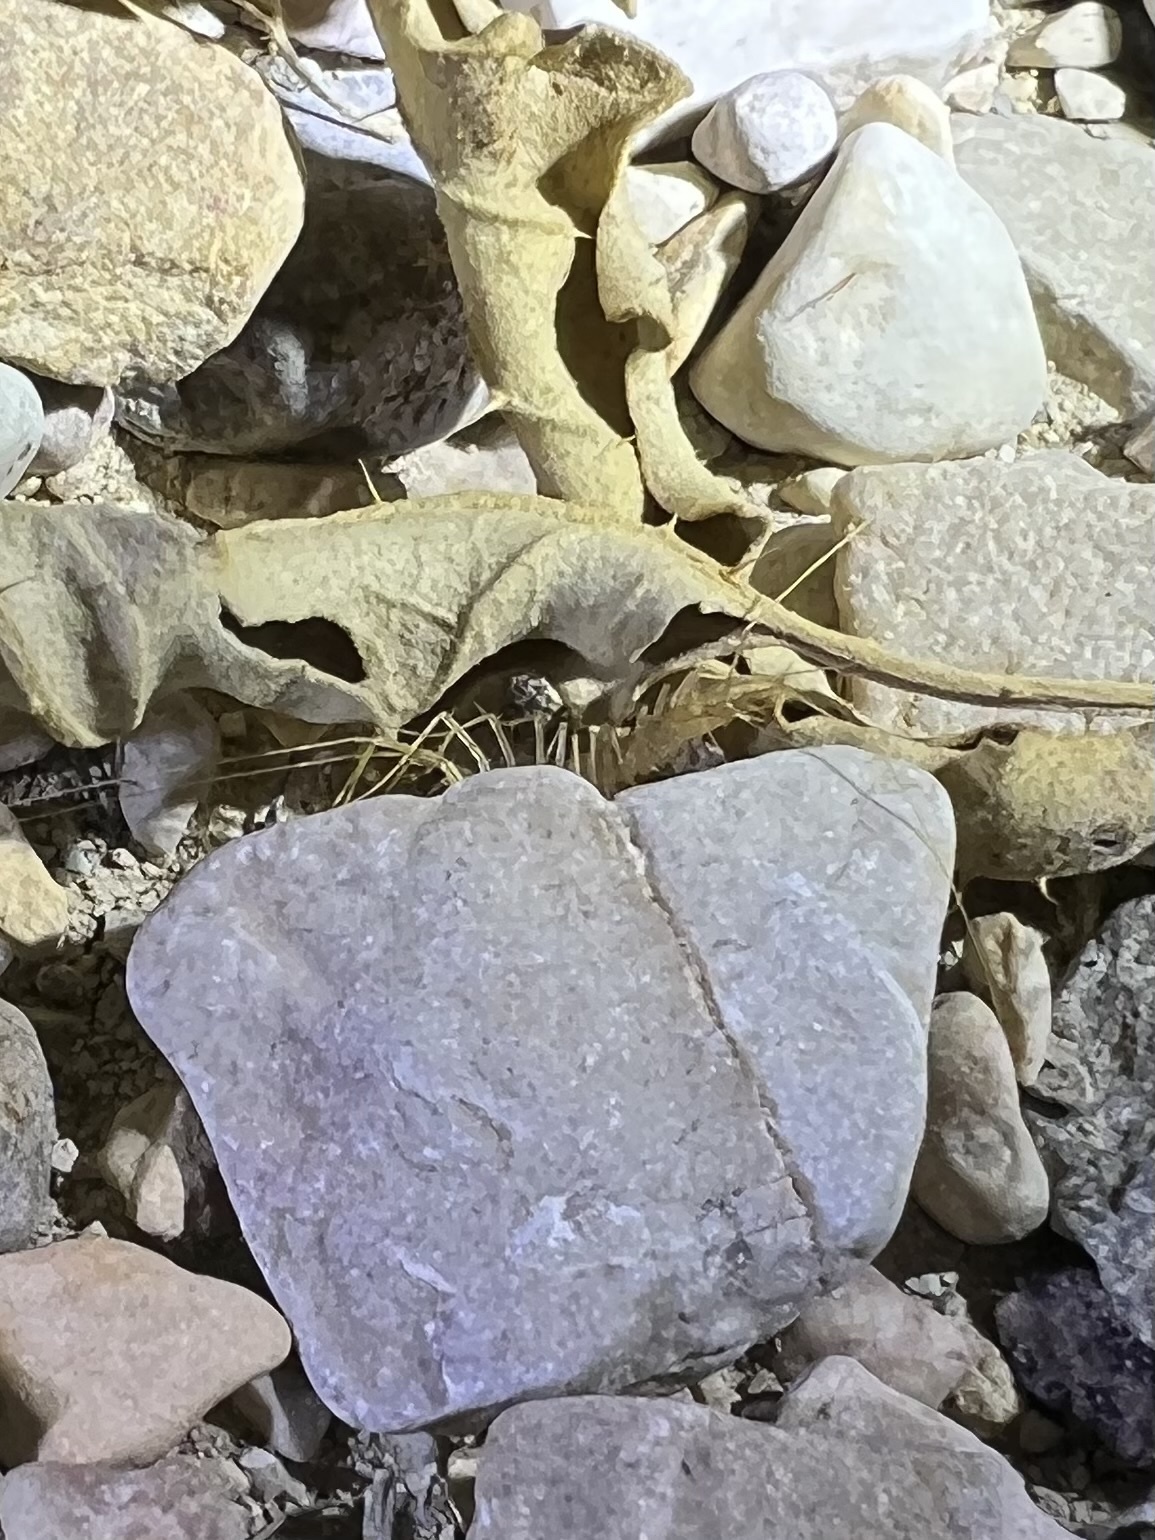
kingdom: Animalia
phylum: Arthropoda
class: Chilopoda
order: Scutigeromorpha
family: Scutigeridae
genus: Scutigera
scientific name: Scutigera linceci
